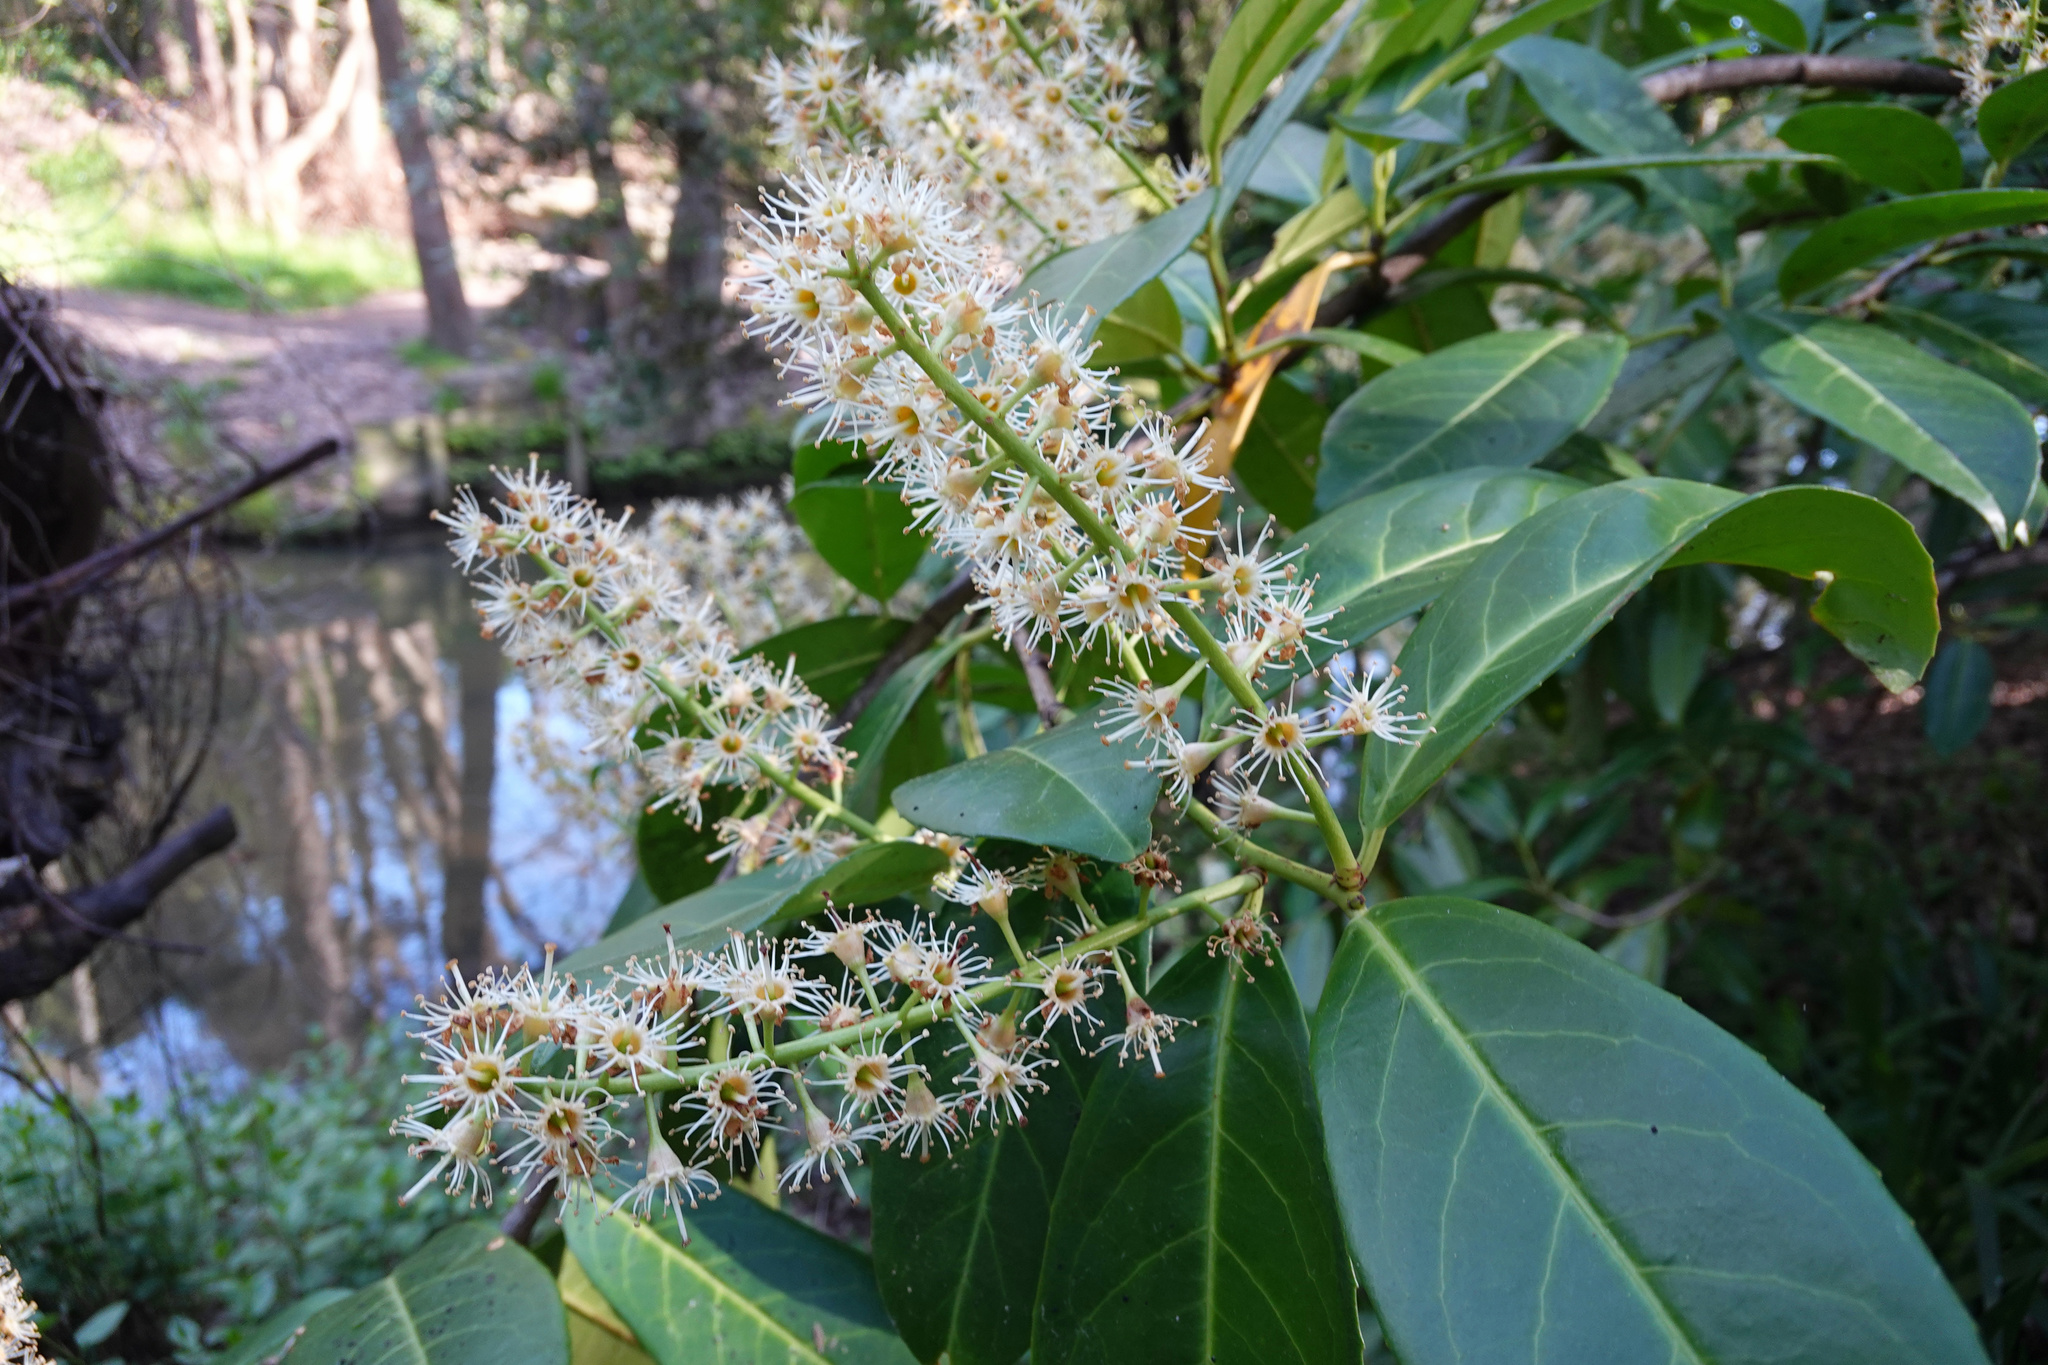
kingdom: Plantae
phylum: Tracheophyta
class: Magnoliopsida
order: Rosales
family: Rosaceae
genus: Prunus
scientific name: Prunus laurocerasus
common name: Cherry laurel
